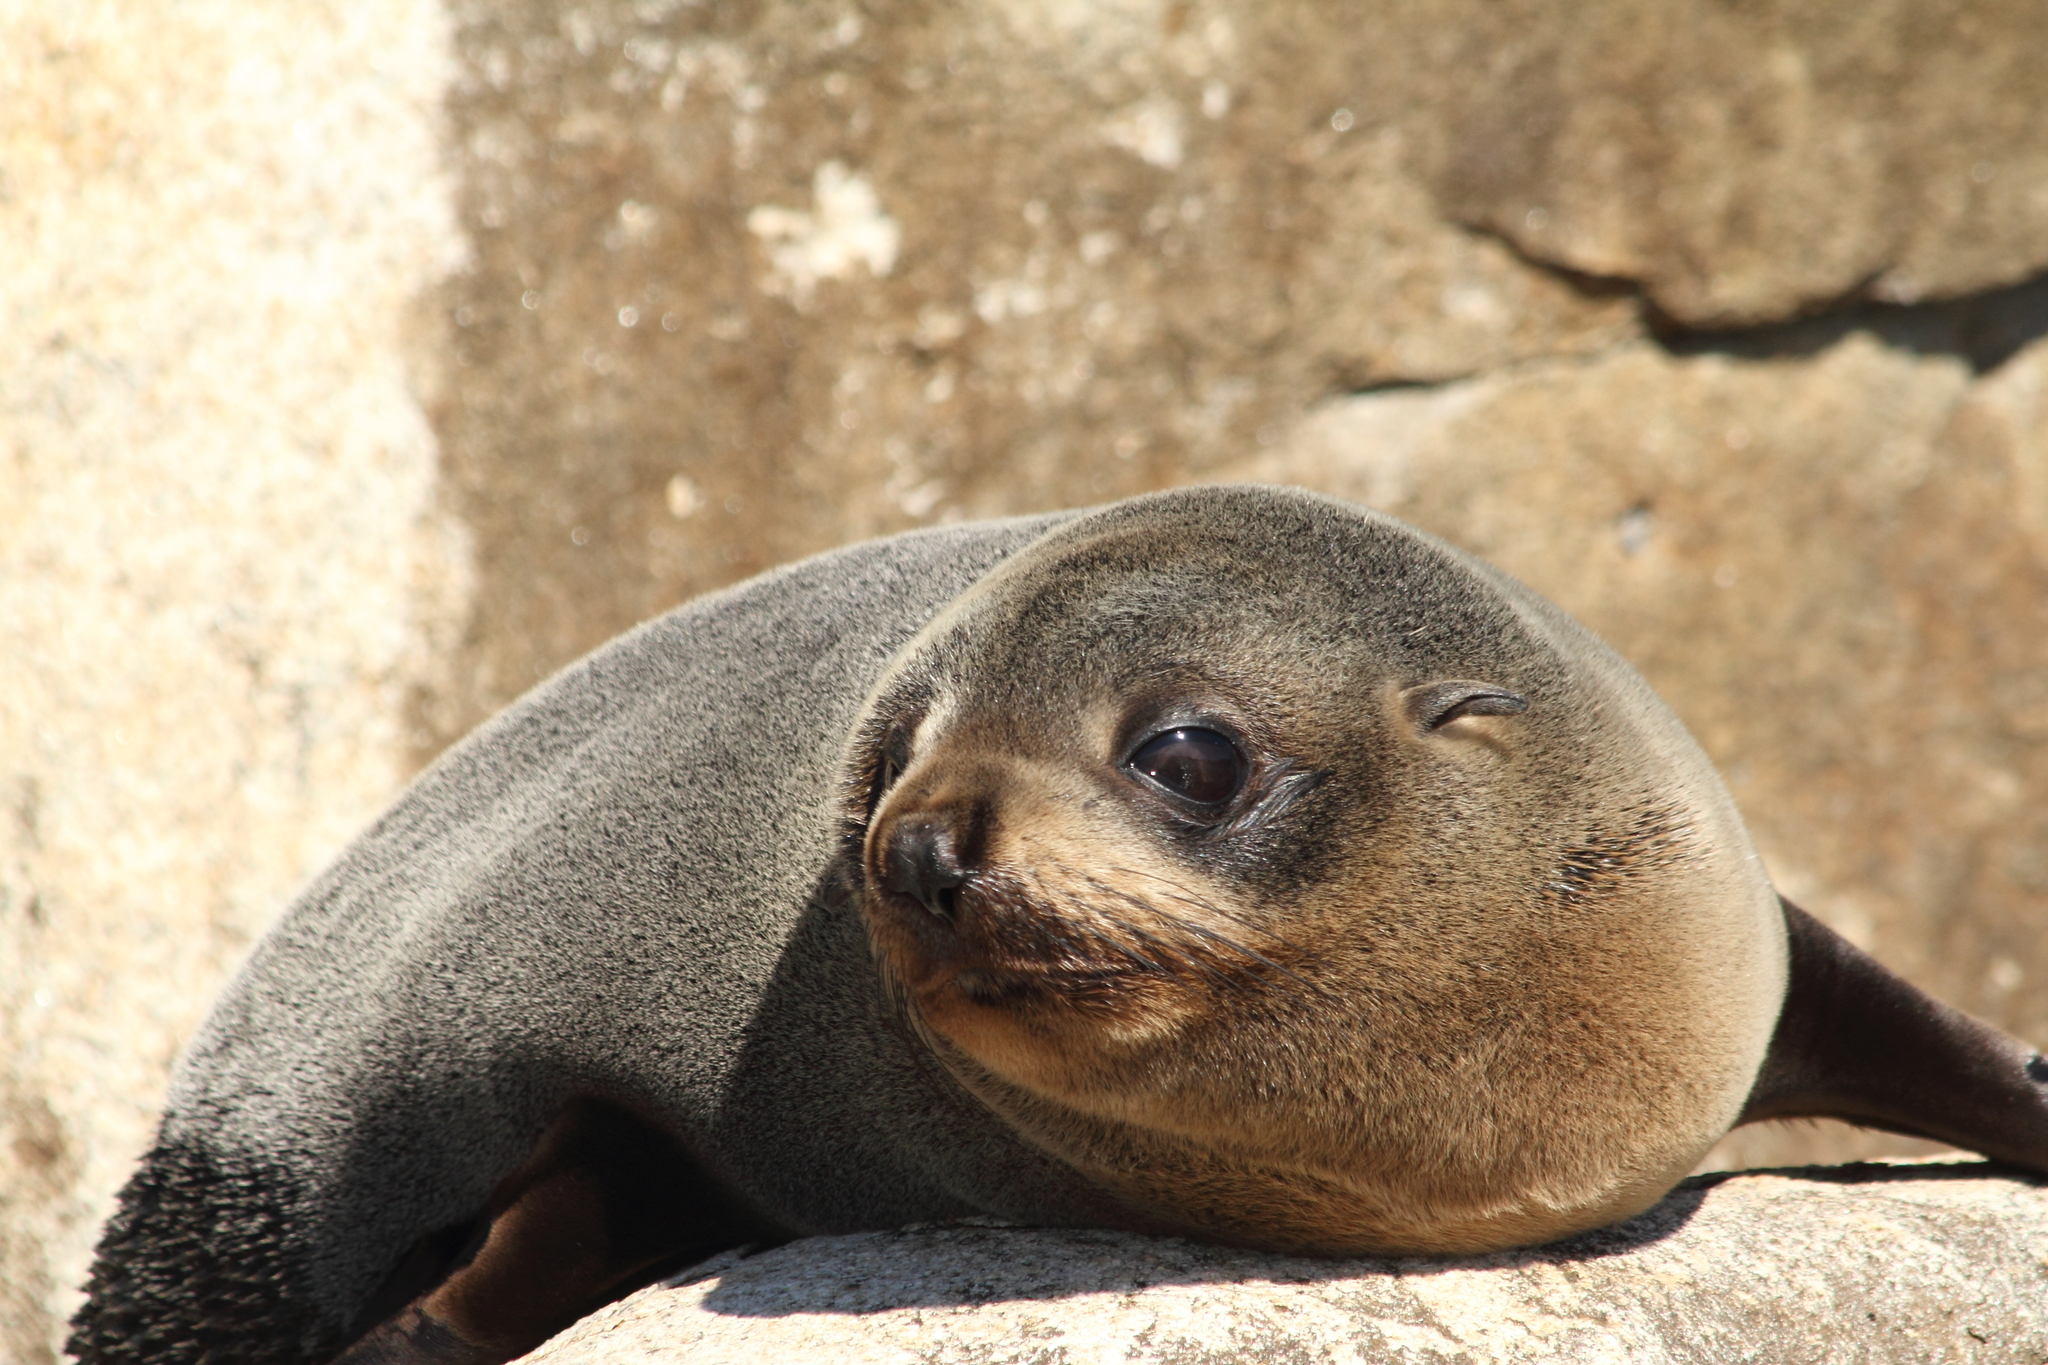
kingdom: Animalia
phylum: Chordata
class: Mammalia
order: Carnivora
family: Otariidae
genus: Arctocephalus
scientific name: Arctocephalus forsteri
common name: New zealand fur seal
